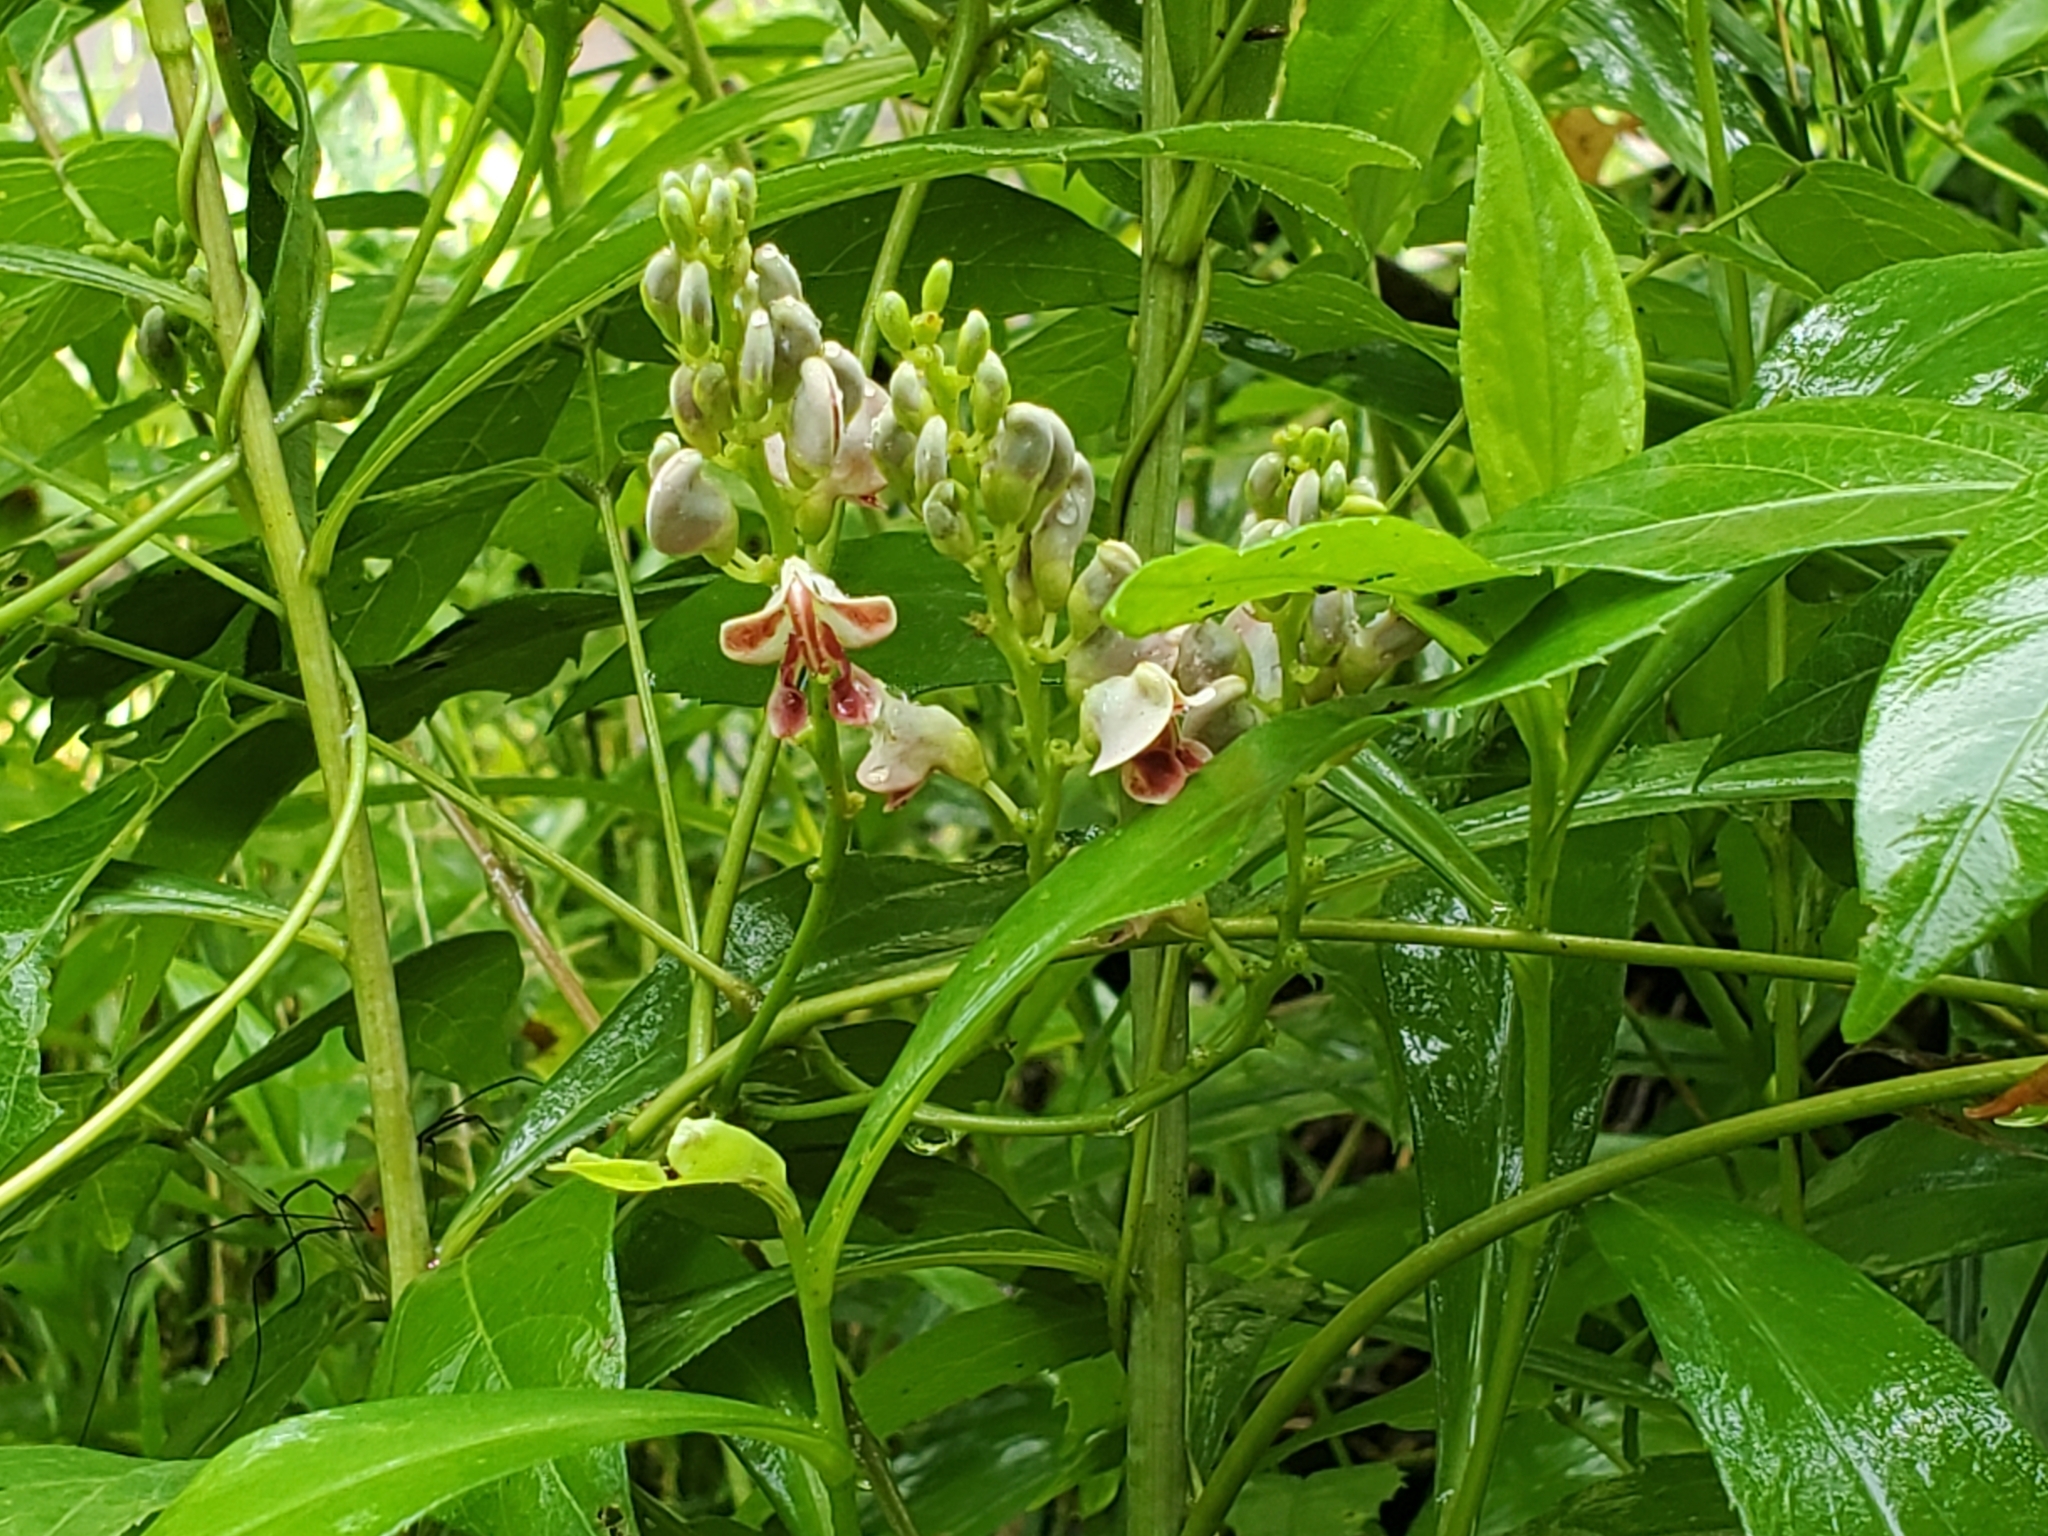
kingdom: Plantae
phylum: Tracheophyta
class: Magnoliopsida
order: Fabales
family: Fabaceae
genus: Apios
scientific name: Apios americana
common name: American potato-bean
